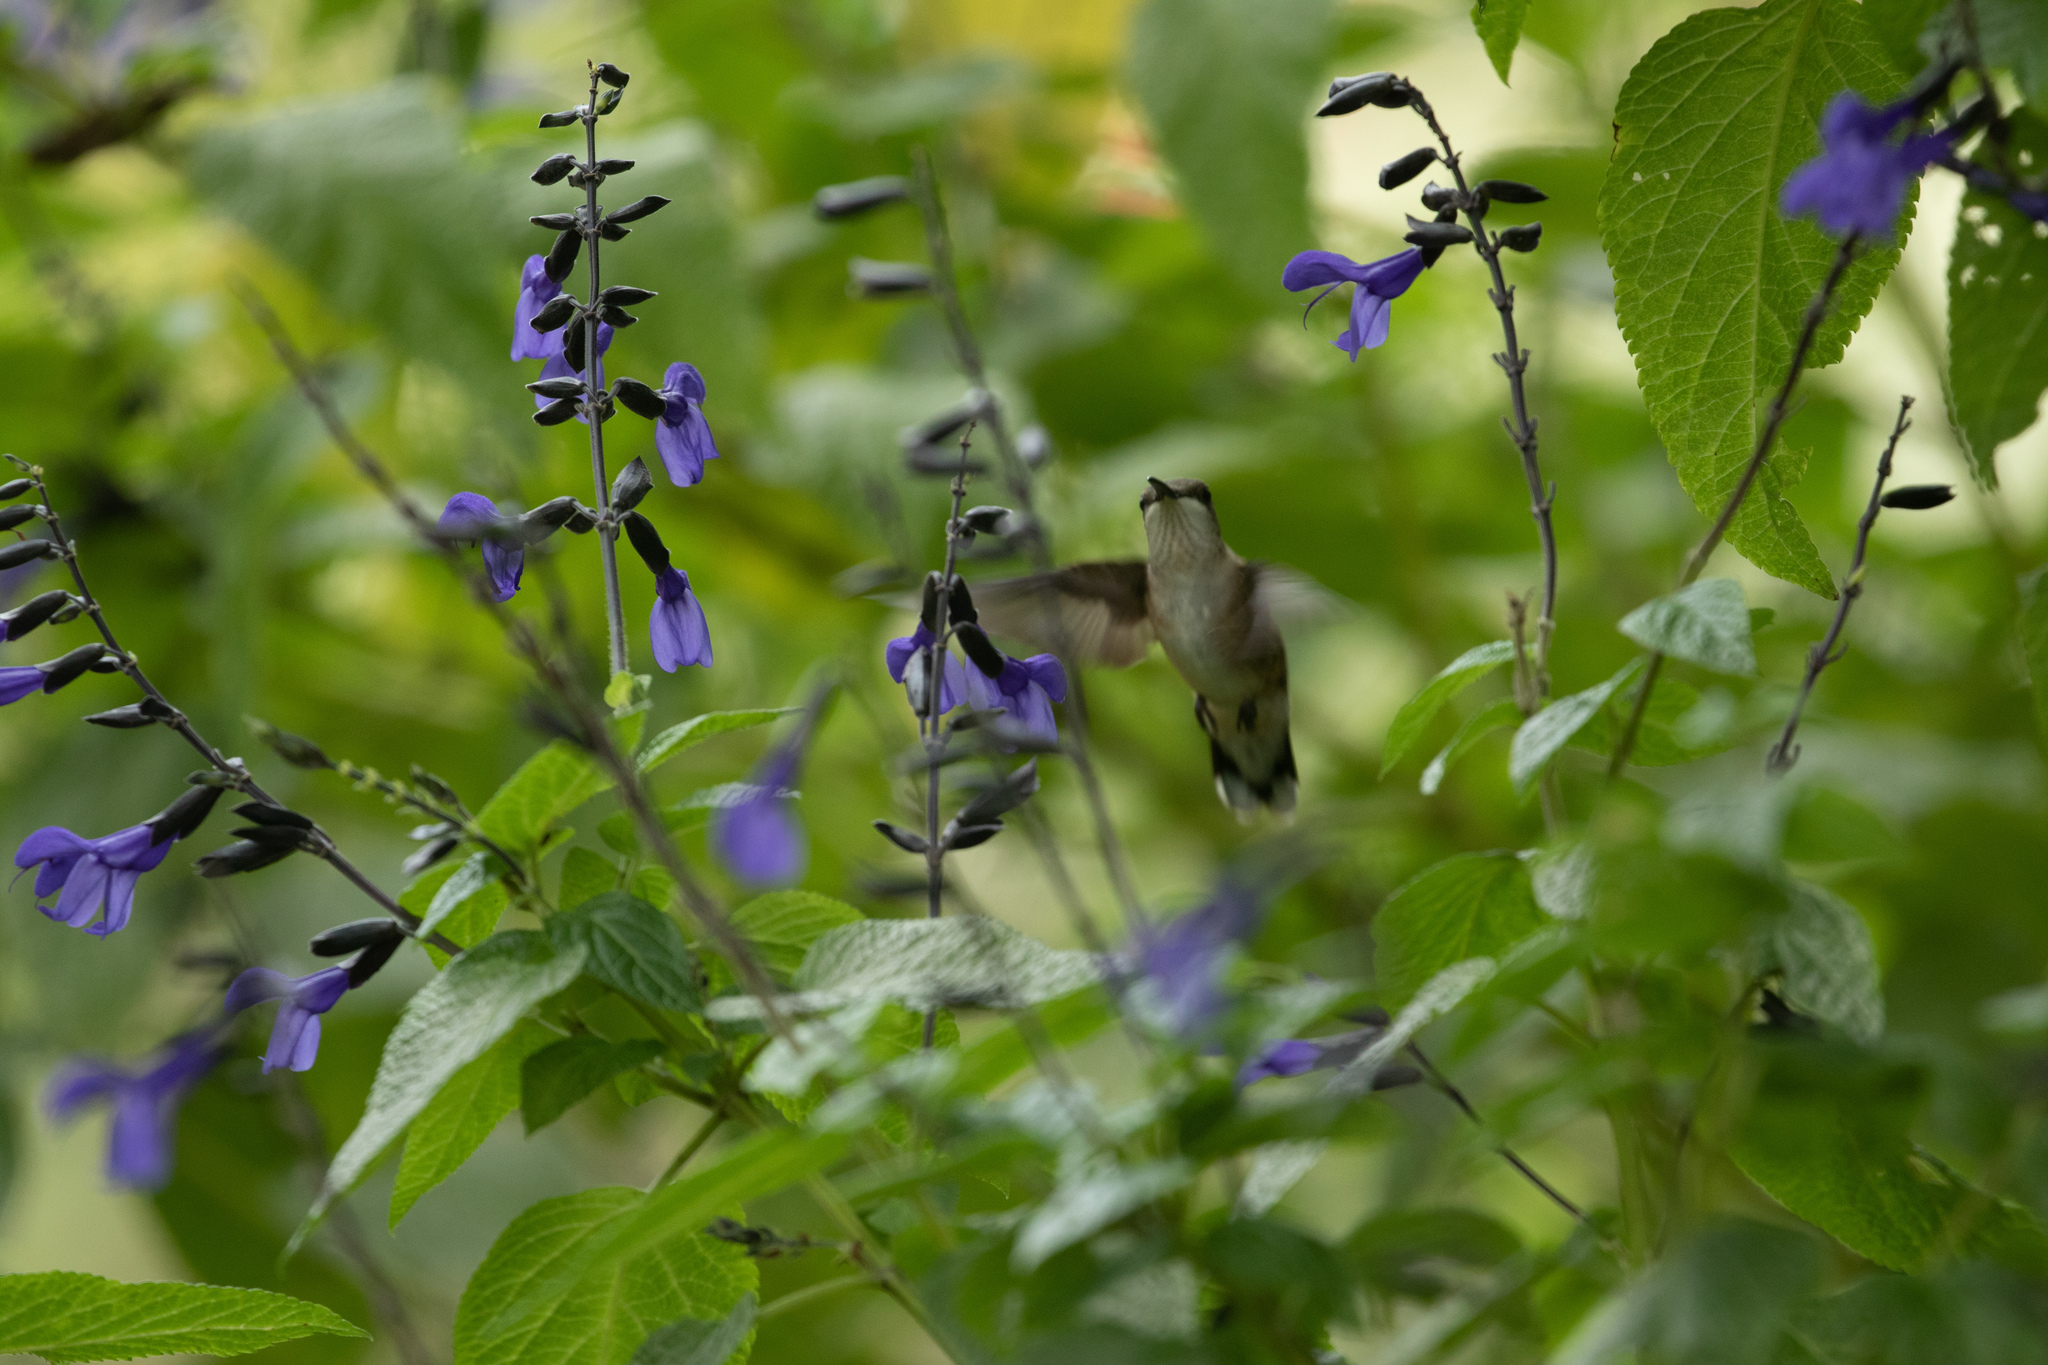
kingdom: Animalia
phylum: Chordata
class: Aves
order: Apodiformes
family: Trochilidae
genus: Archilochus
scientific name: Archilochus colubris
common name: Ruby-throated hummingbird
